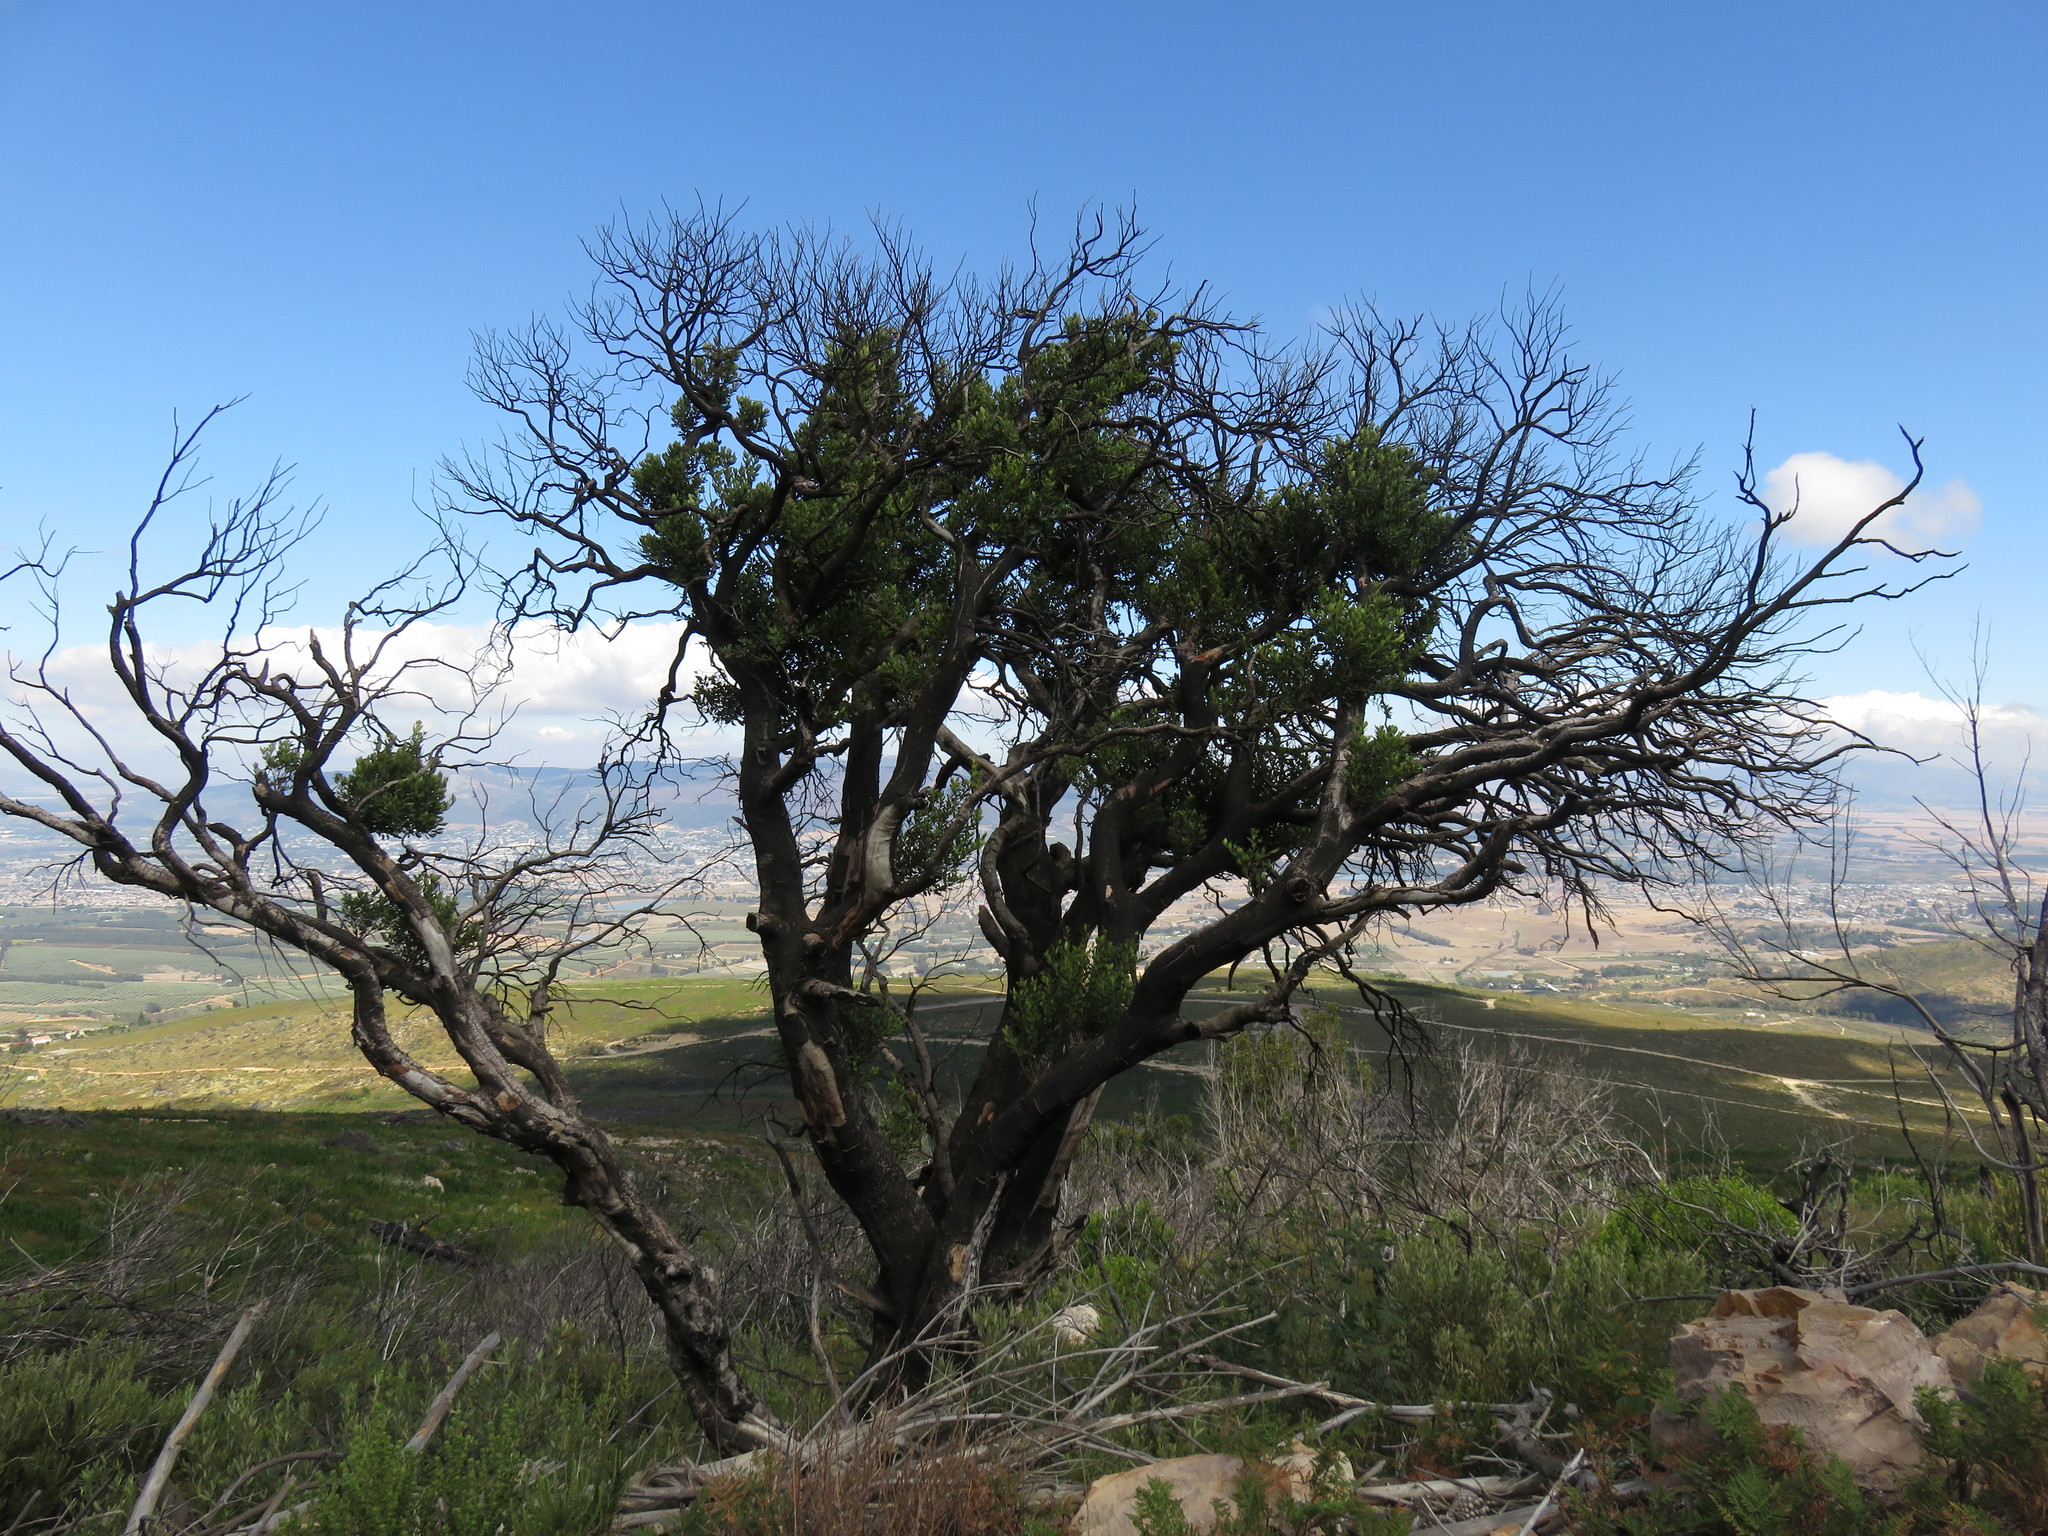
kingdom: Plantae
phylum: Tracheophyta
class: Magnoliopsida
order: Celastrales
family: Celastraceae
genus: Gymnosporia
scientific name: Gymnosporia laurina
